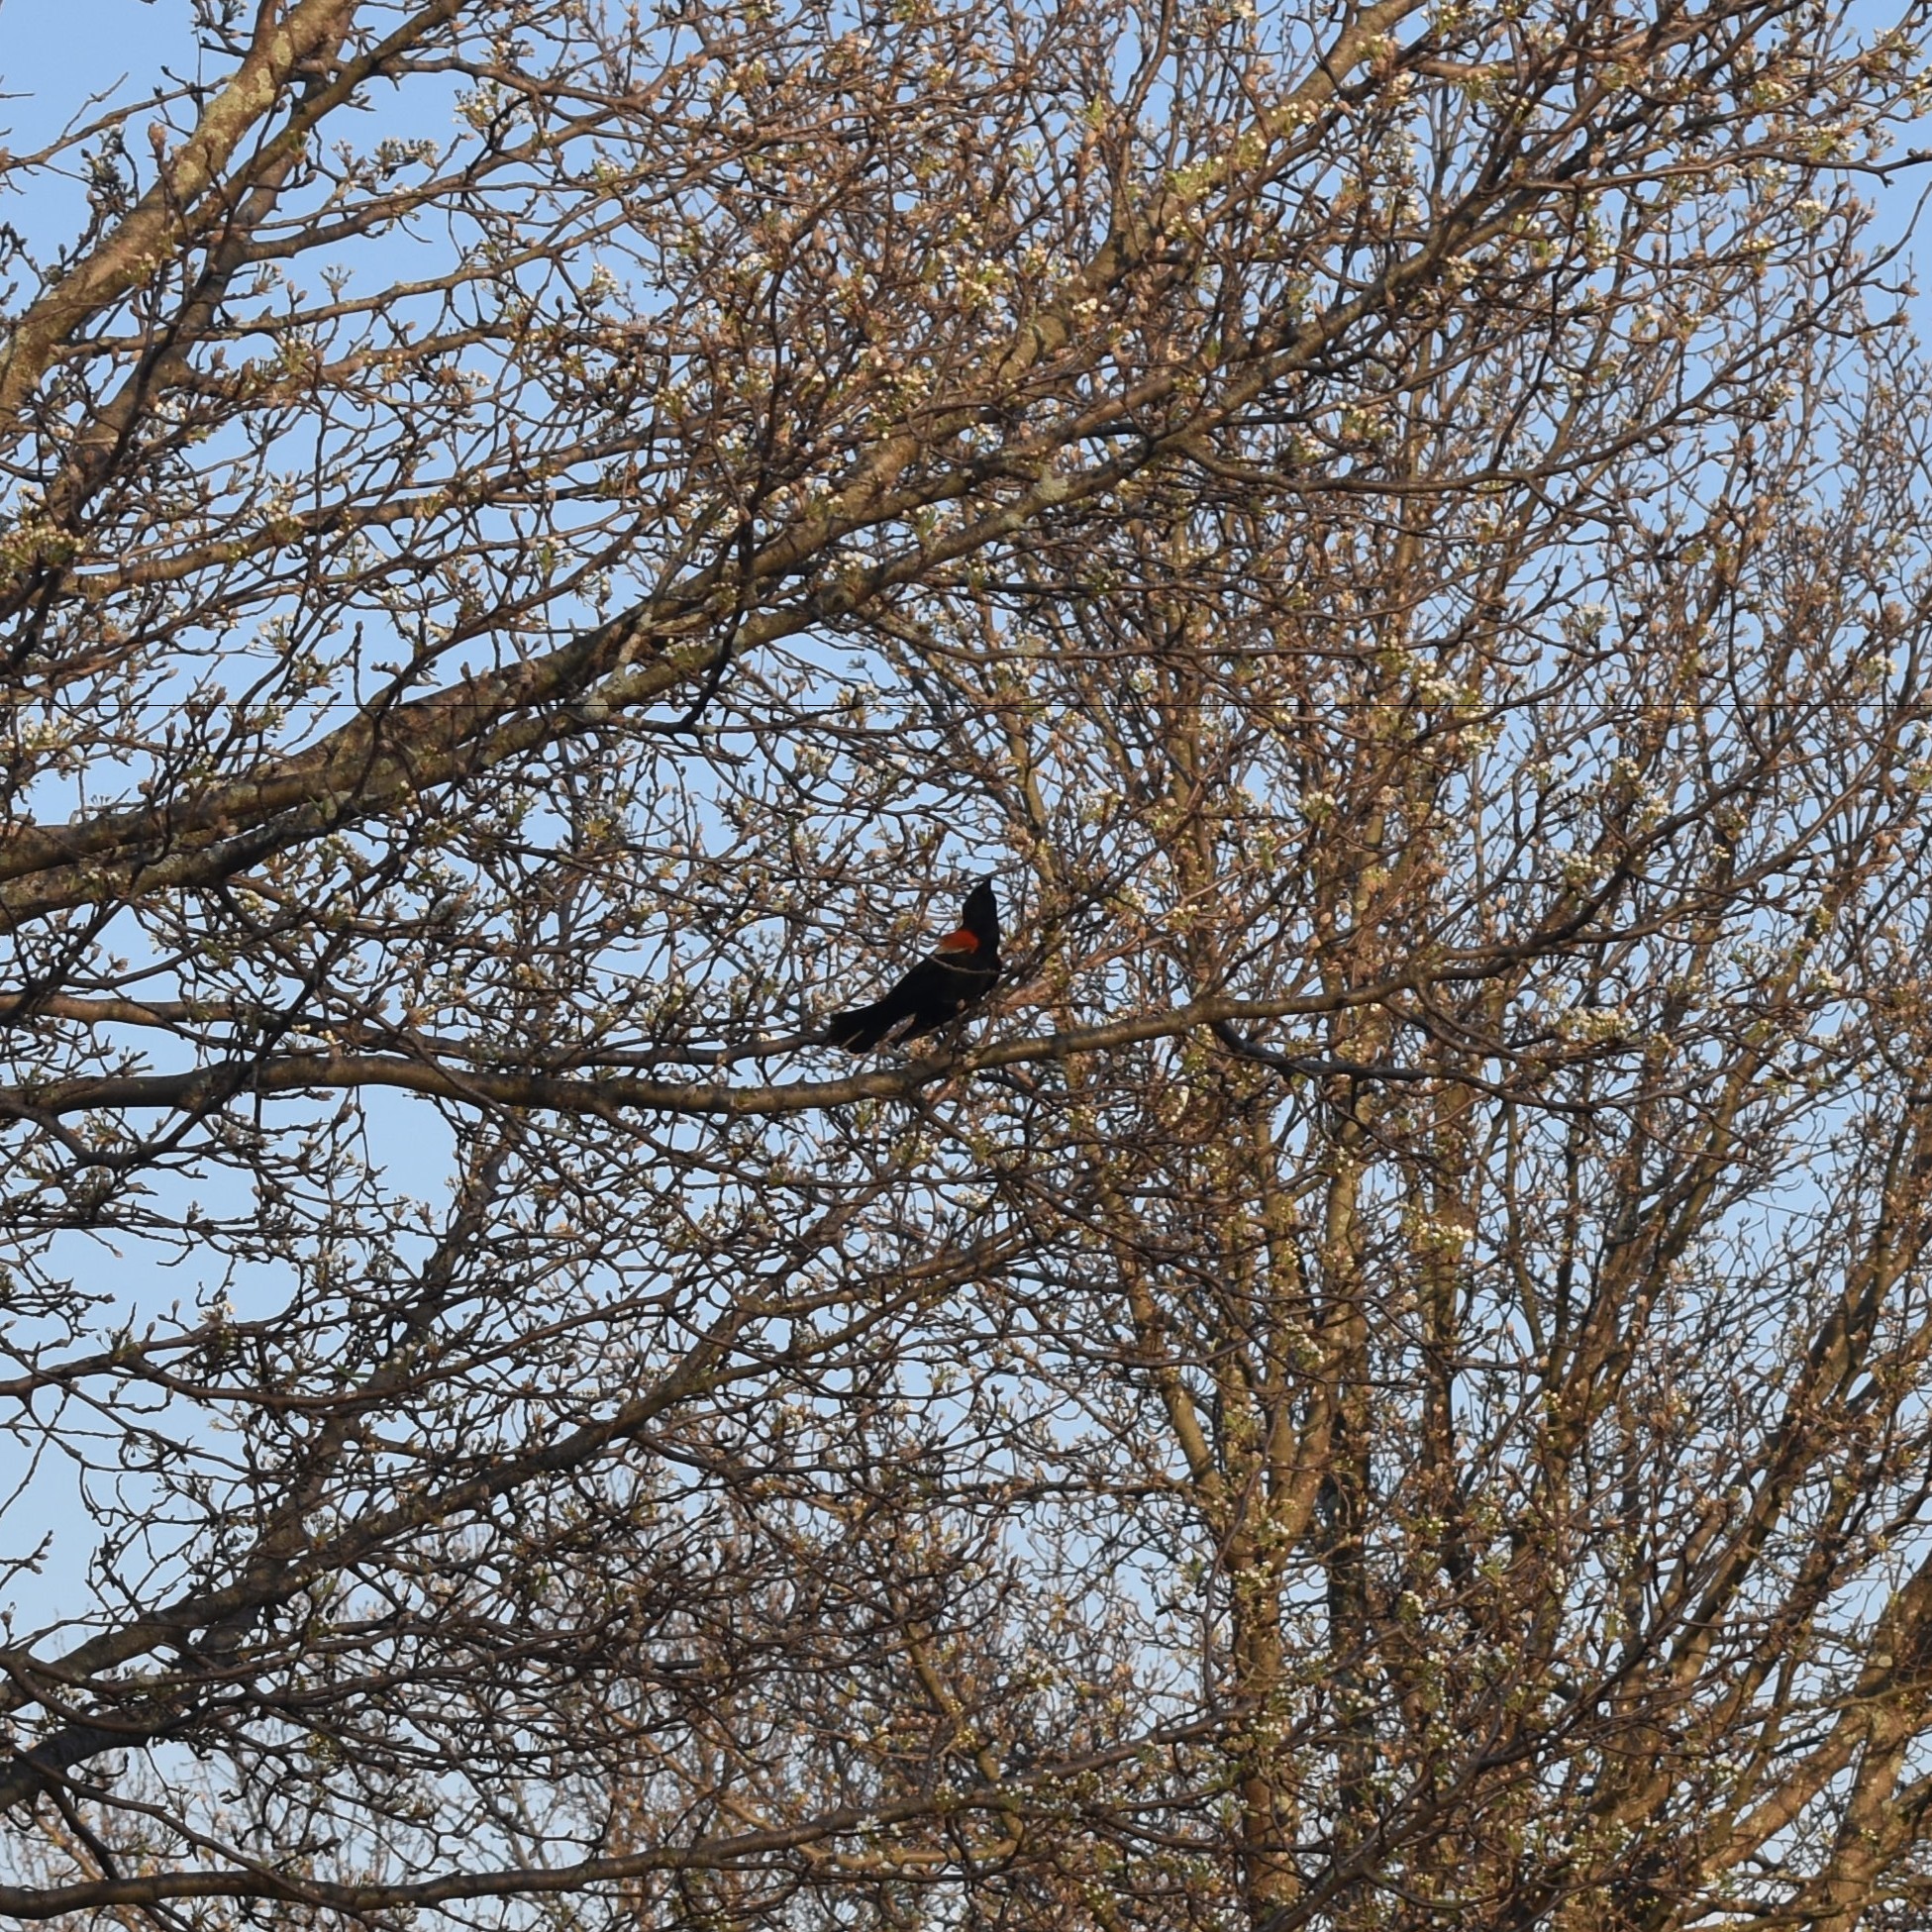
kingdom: Animalia
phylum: Chordata
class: Aves
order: Passeriformes
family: Icteridae
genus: Agelaius
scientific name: Agelaius phoeniceus
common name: Red-winged blackbird
